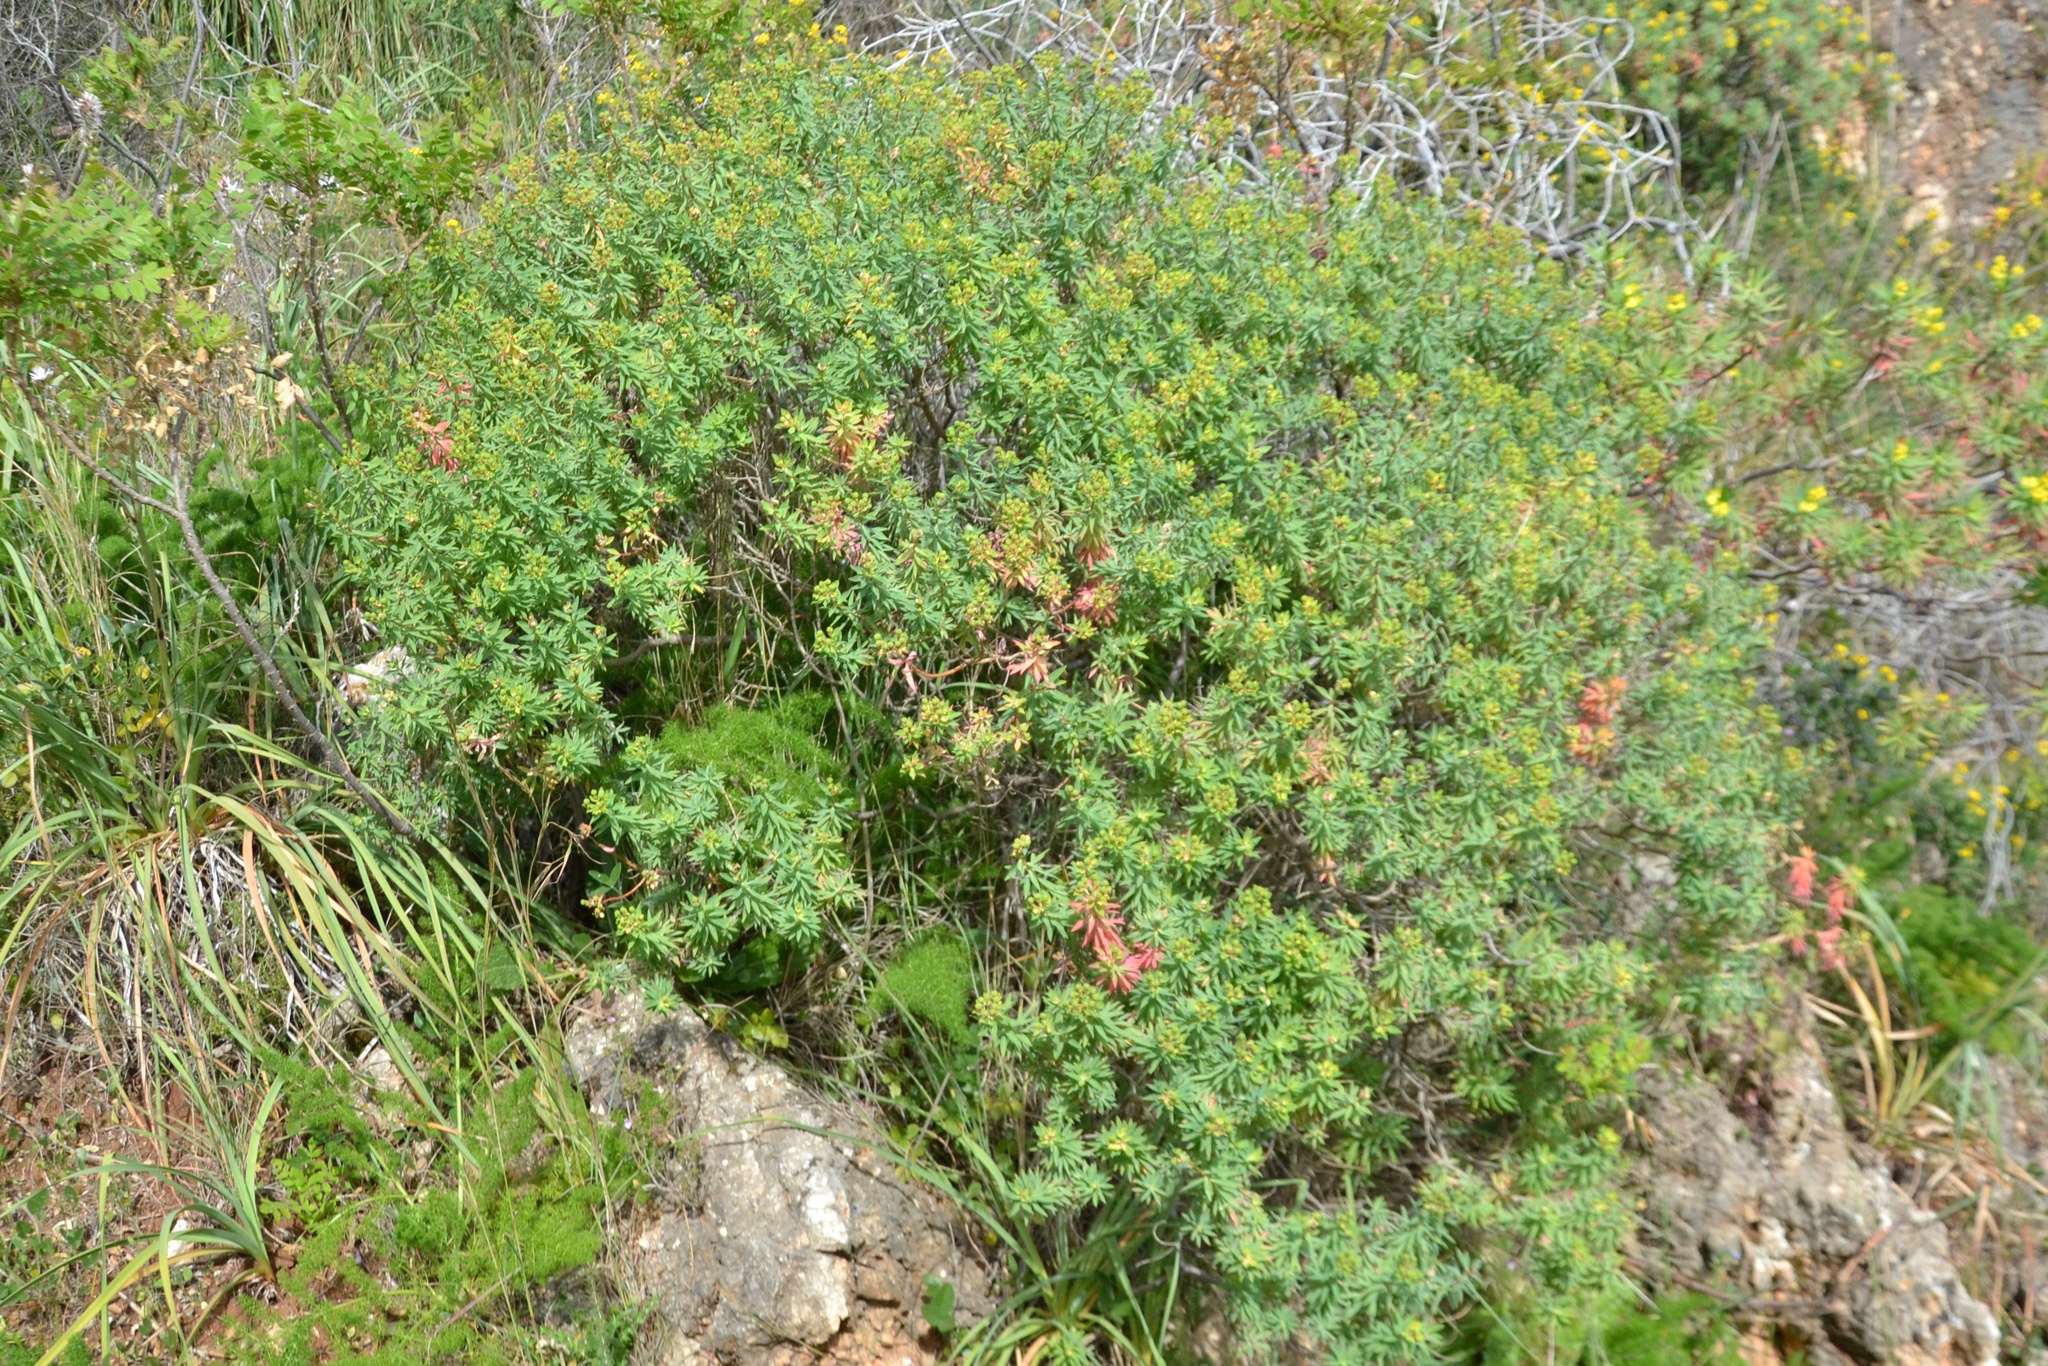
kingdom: Plantae
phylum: Tracheophyta
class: Magnoliopsida
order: Malpighiales
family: Euphorbiaceae
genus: Euphorbia
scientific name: Euphorbia bivonae
